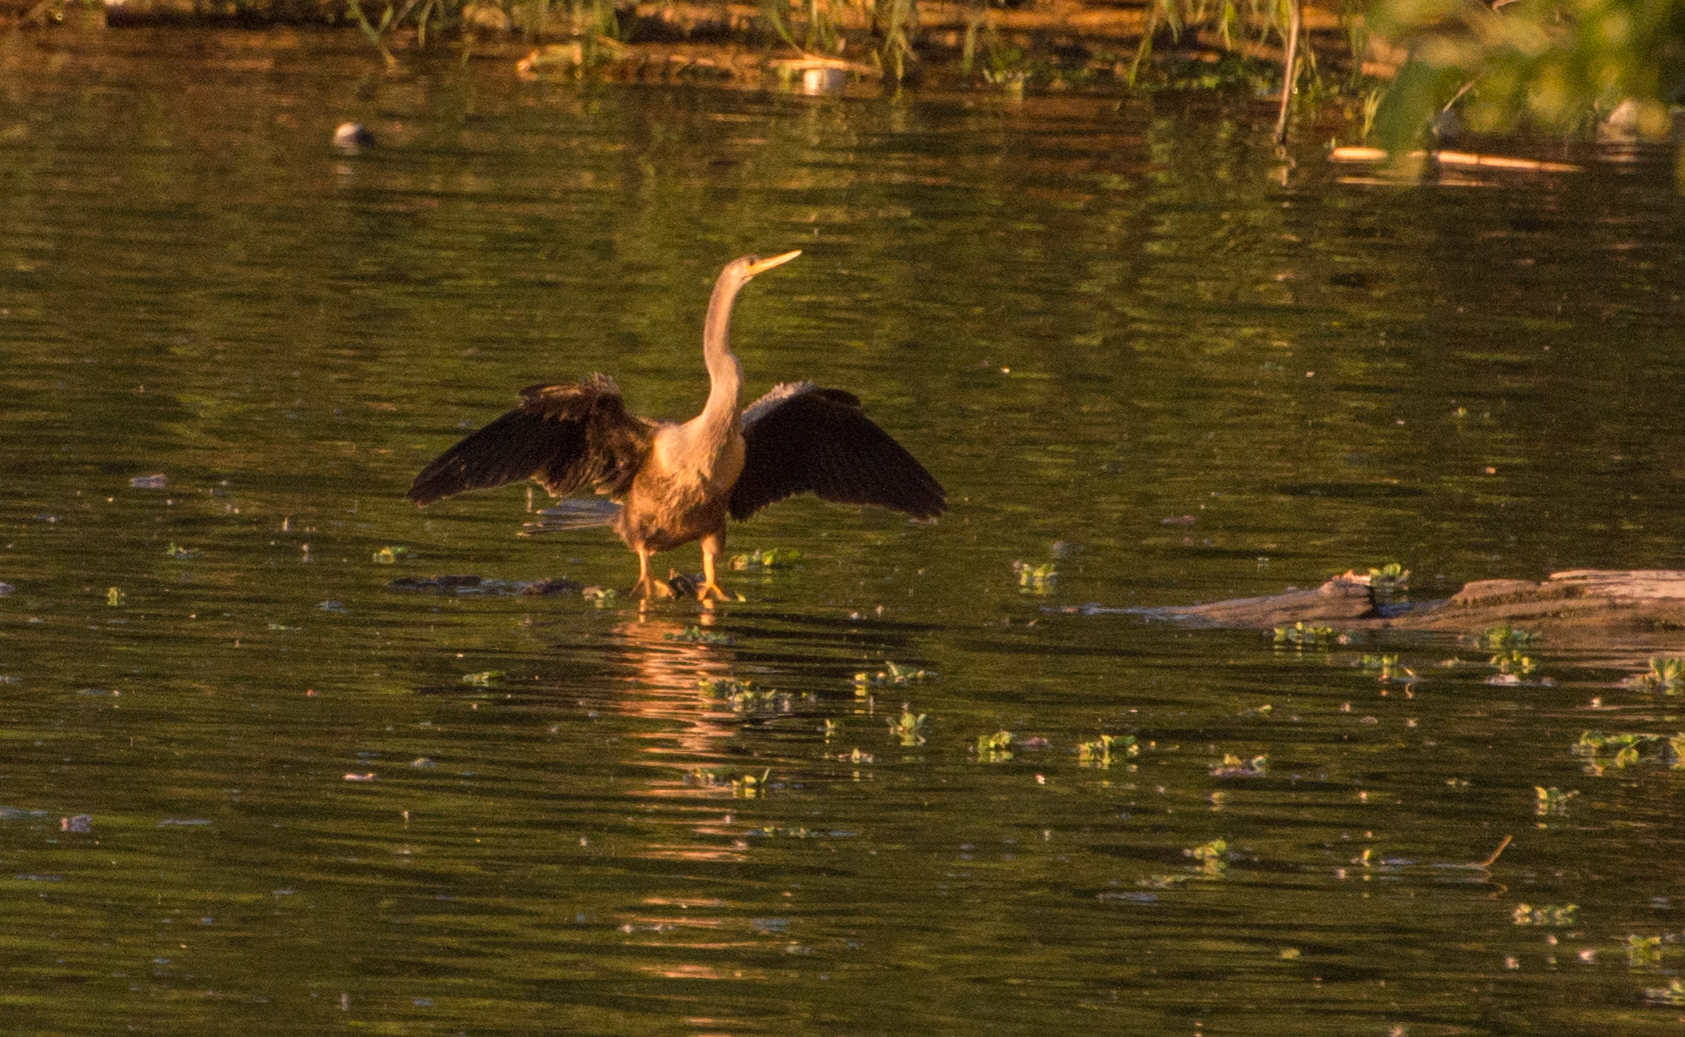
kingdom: Animalia
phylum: Chordata
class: Aves
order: Suliformes
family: Anhingidae
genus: Anhinga
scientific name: Anhinga anhinga
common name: Anhinga
